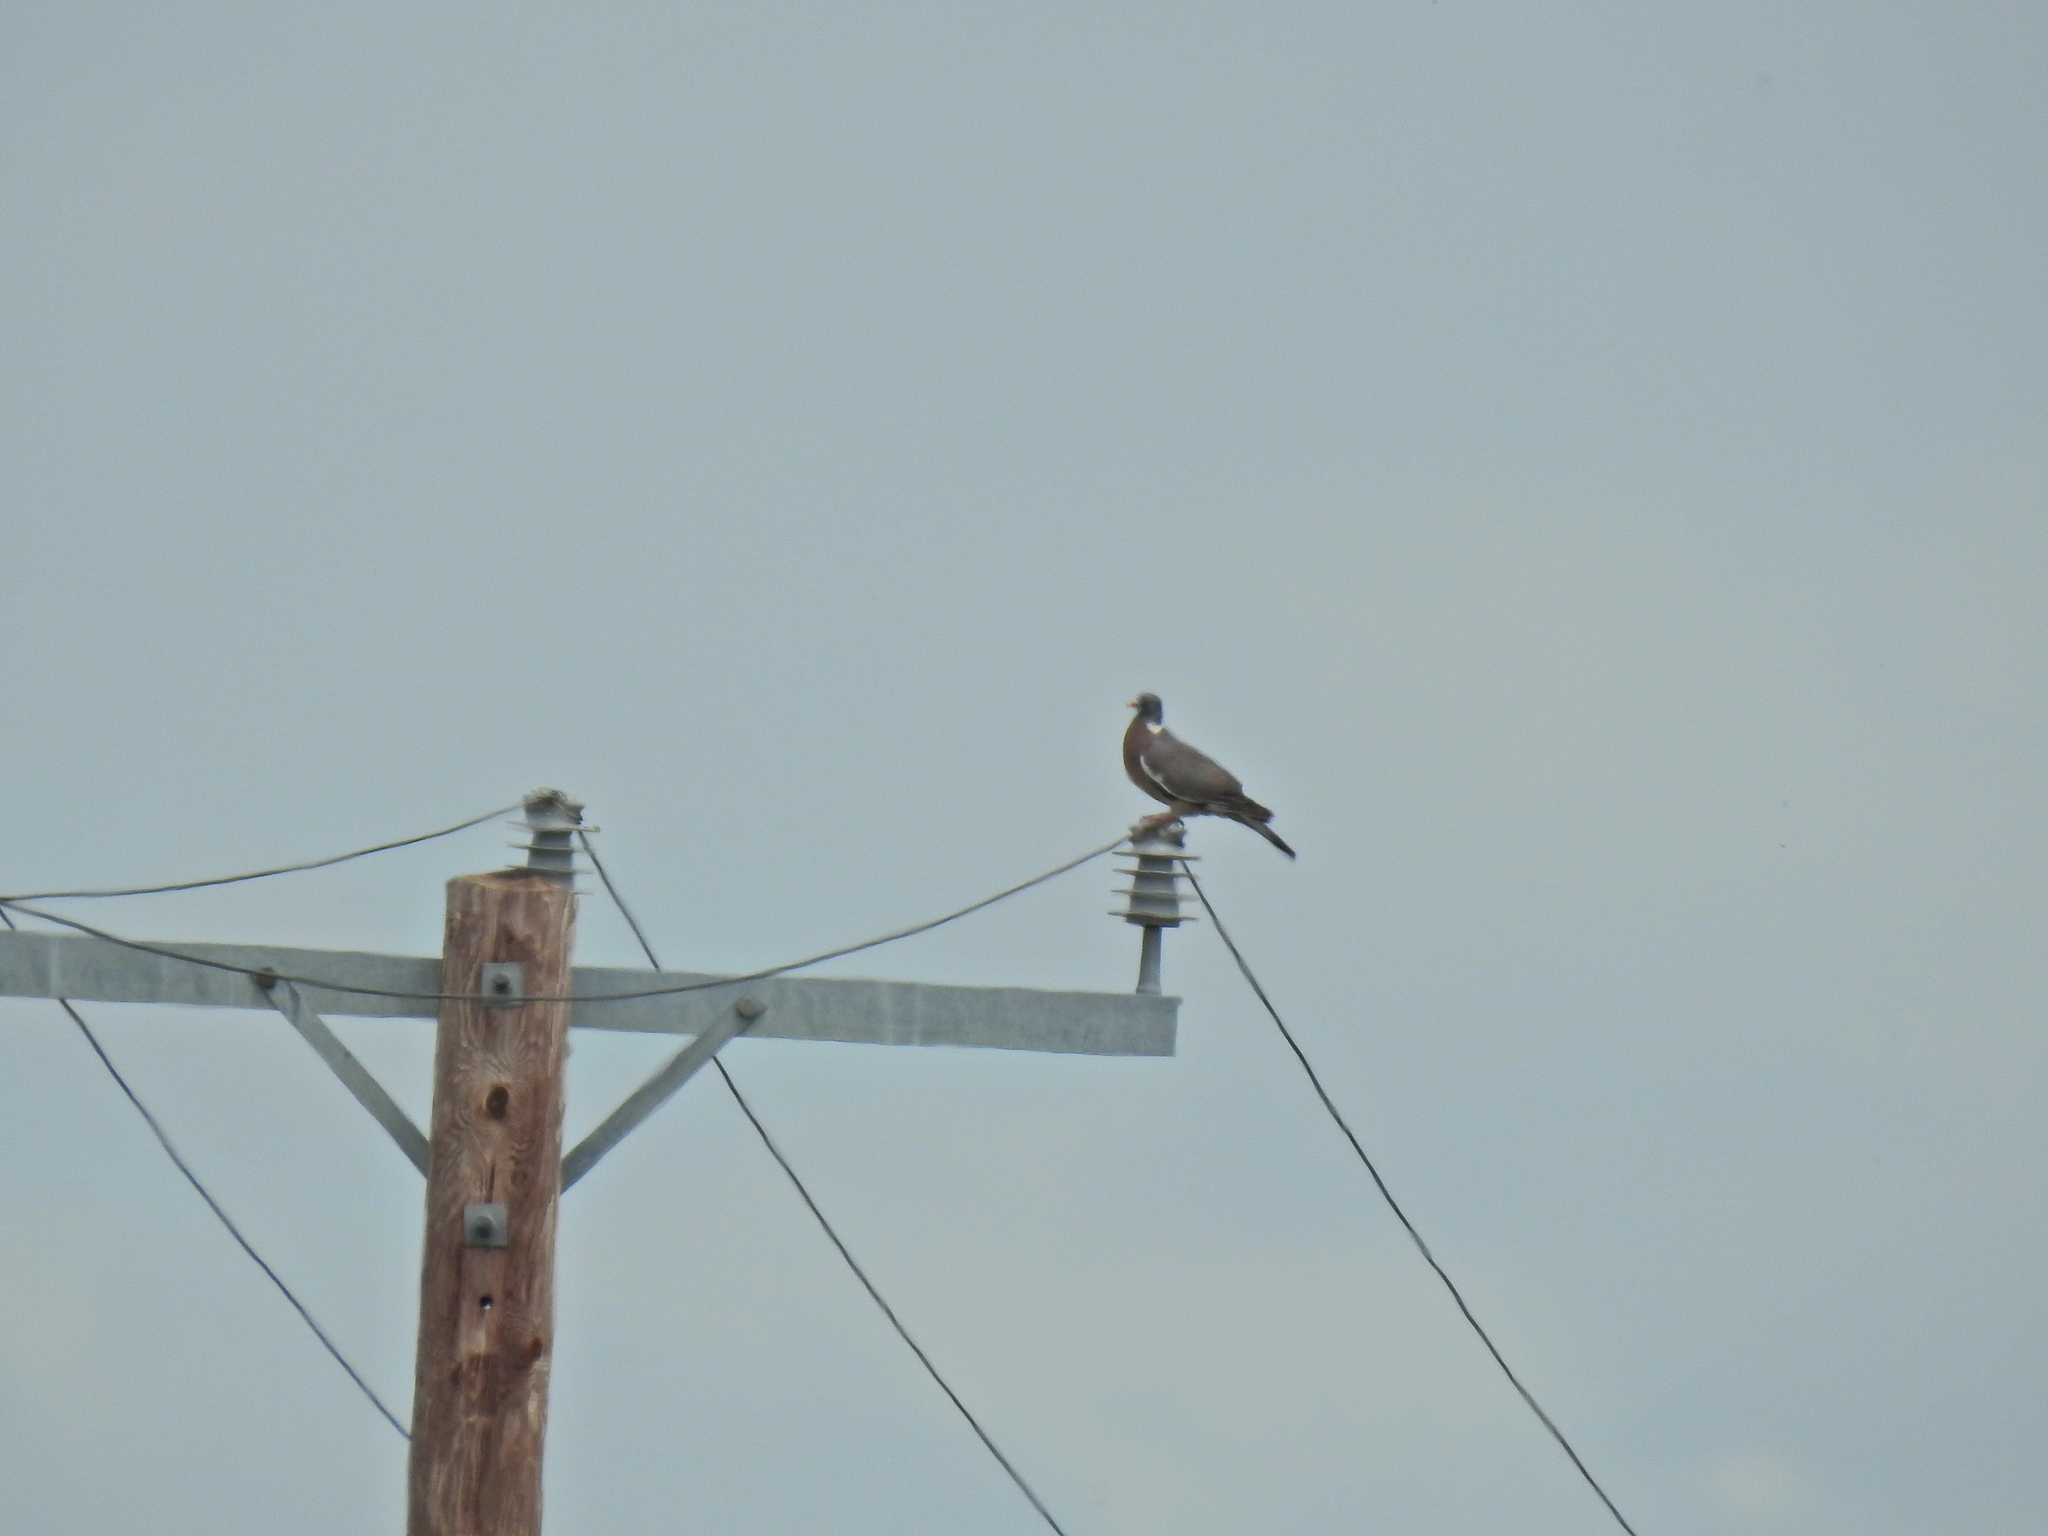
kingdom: Animalia
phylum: Chordata
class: Aves
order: Columbiformes
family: Columbidae
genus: Columba
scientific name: Columba palumbus
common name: Common wood pigeon
